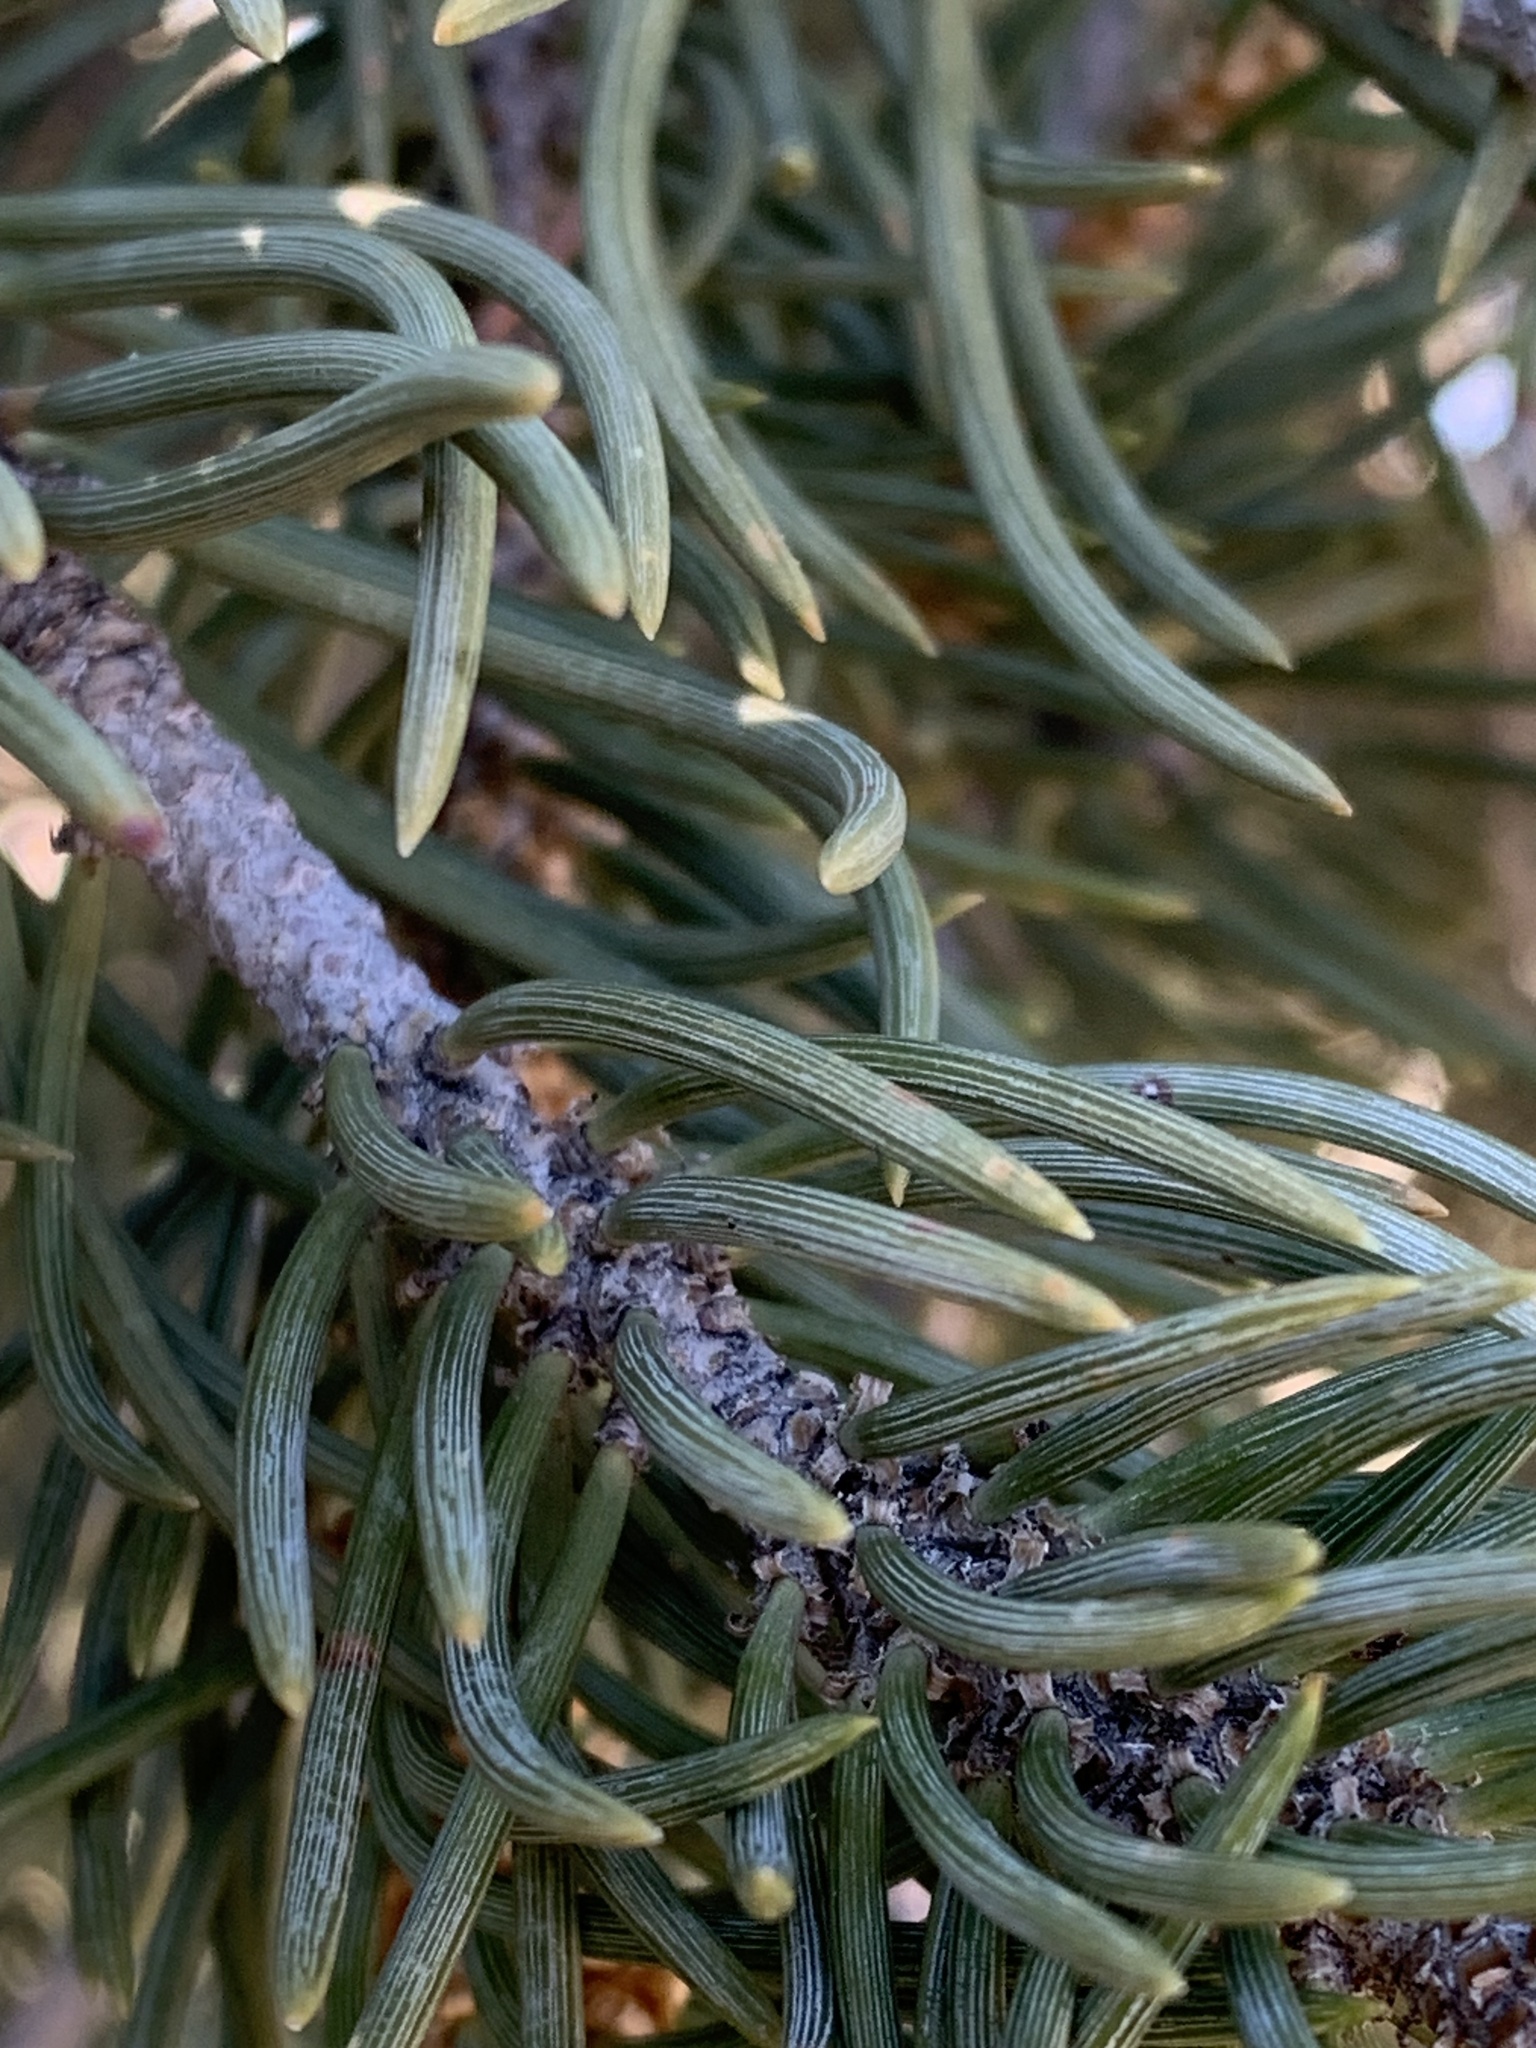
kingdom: Plantae
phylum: Tracheophyta
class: Pinopsida
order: Pinales
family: Pinaceae
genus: Pinus
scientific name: Pinus monophylla
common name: One-leaved nut pine
